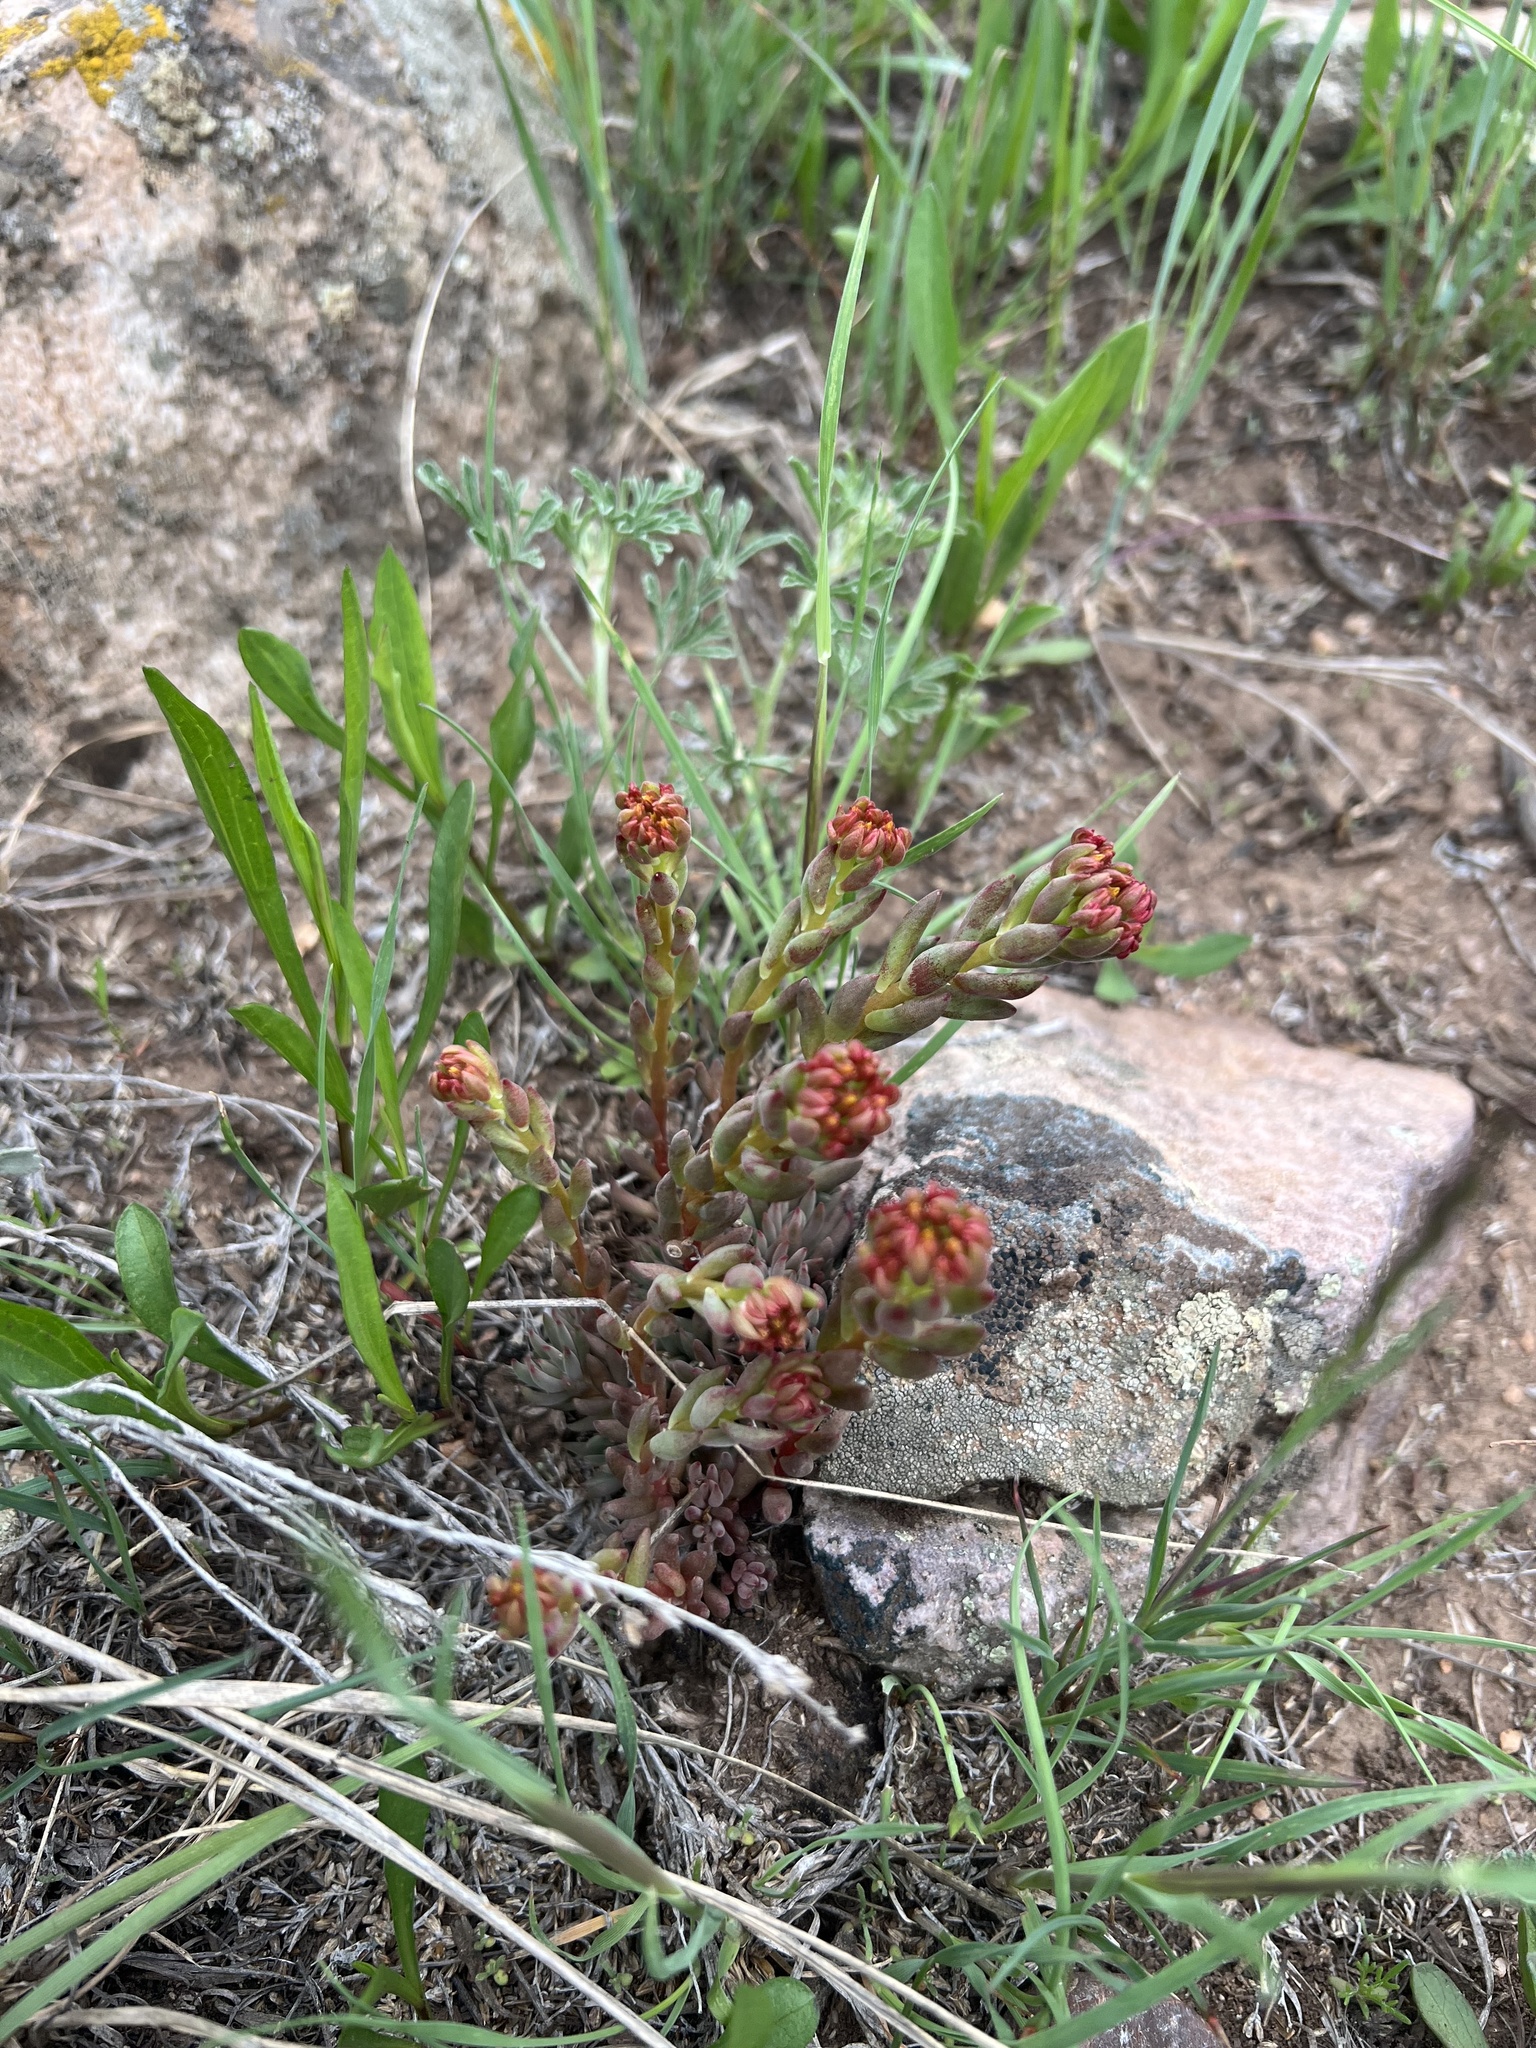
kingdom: Plantae
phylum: Tracheophyta
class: Magnoliopsida
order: Saxifragales
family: Crassulaceae
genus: Sedum
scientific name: Sedum lanceolatum
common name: Common stonecrop
